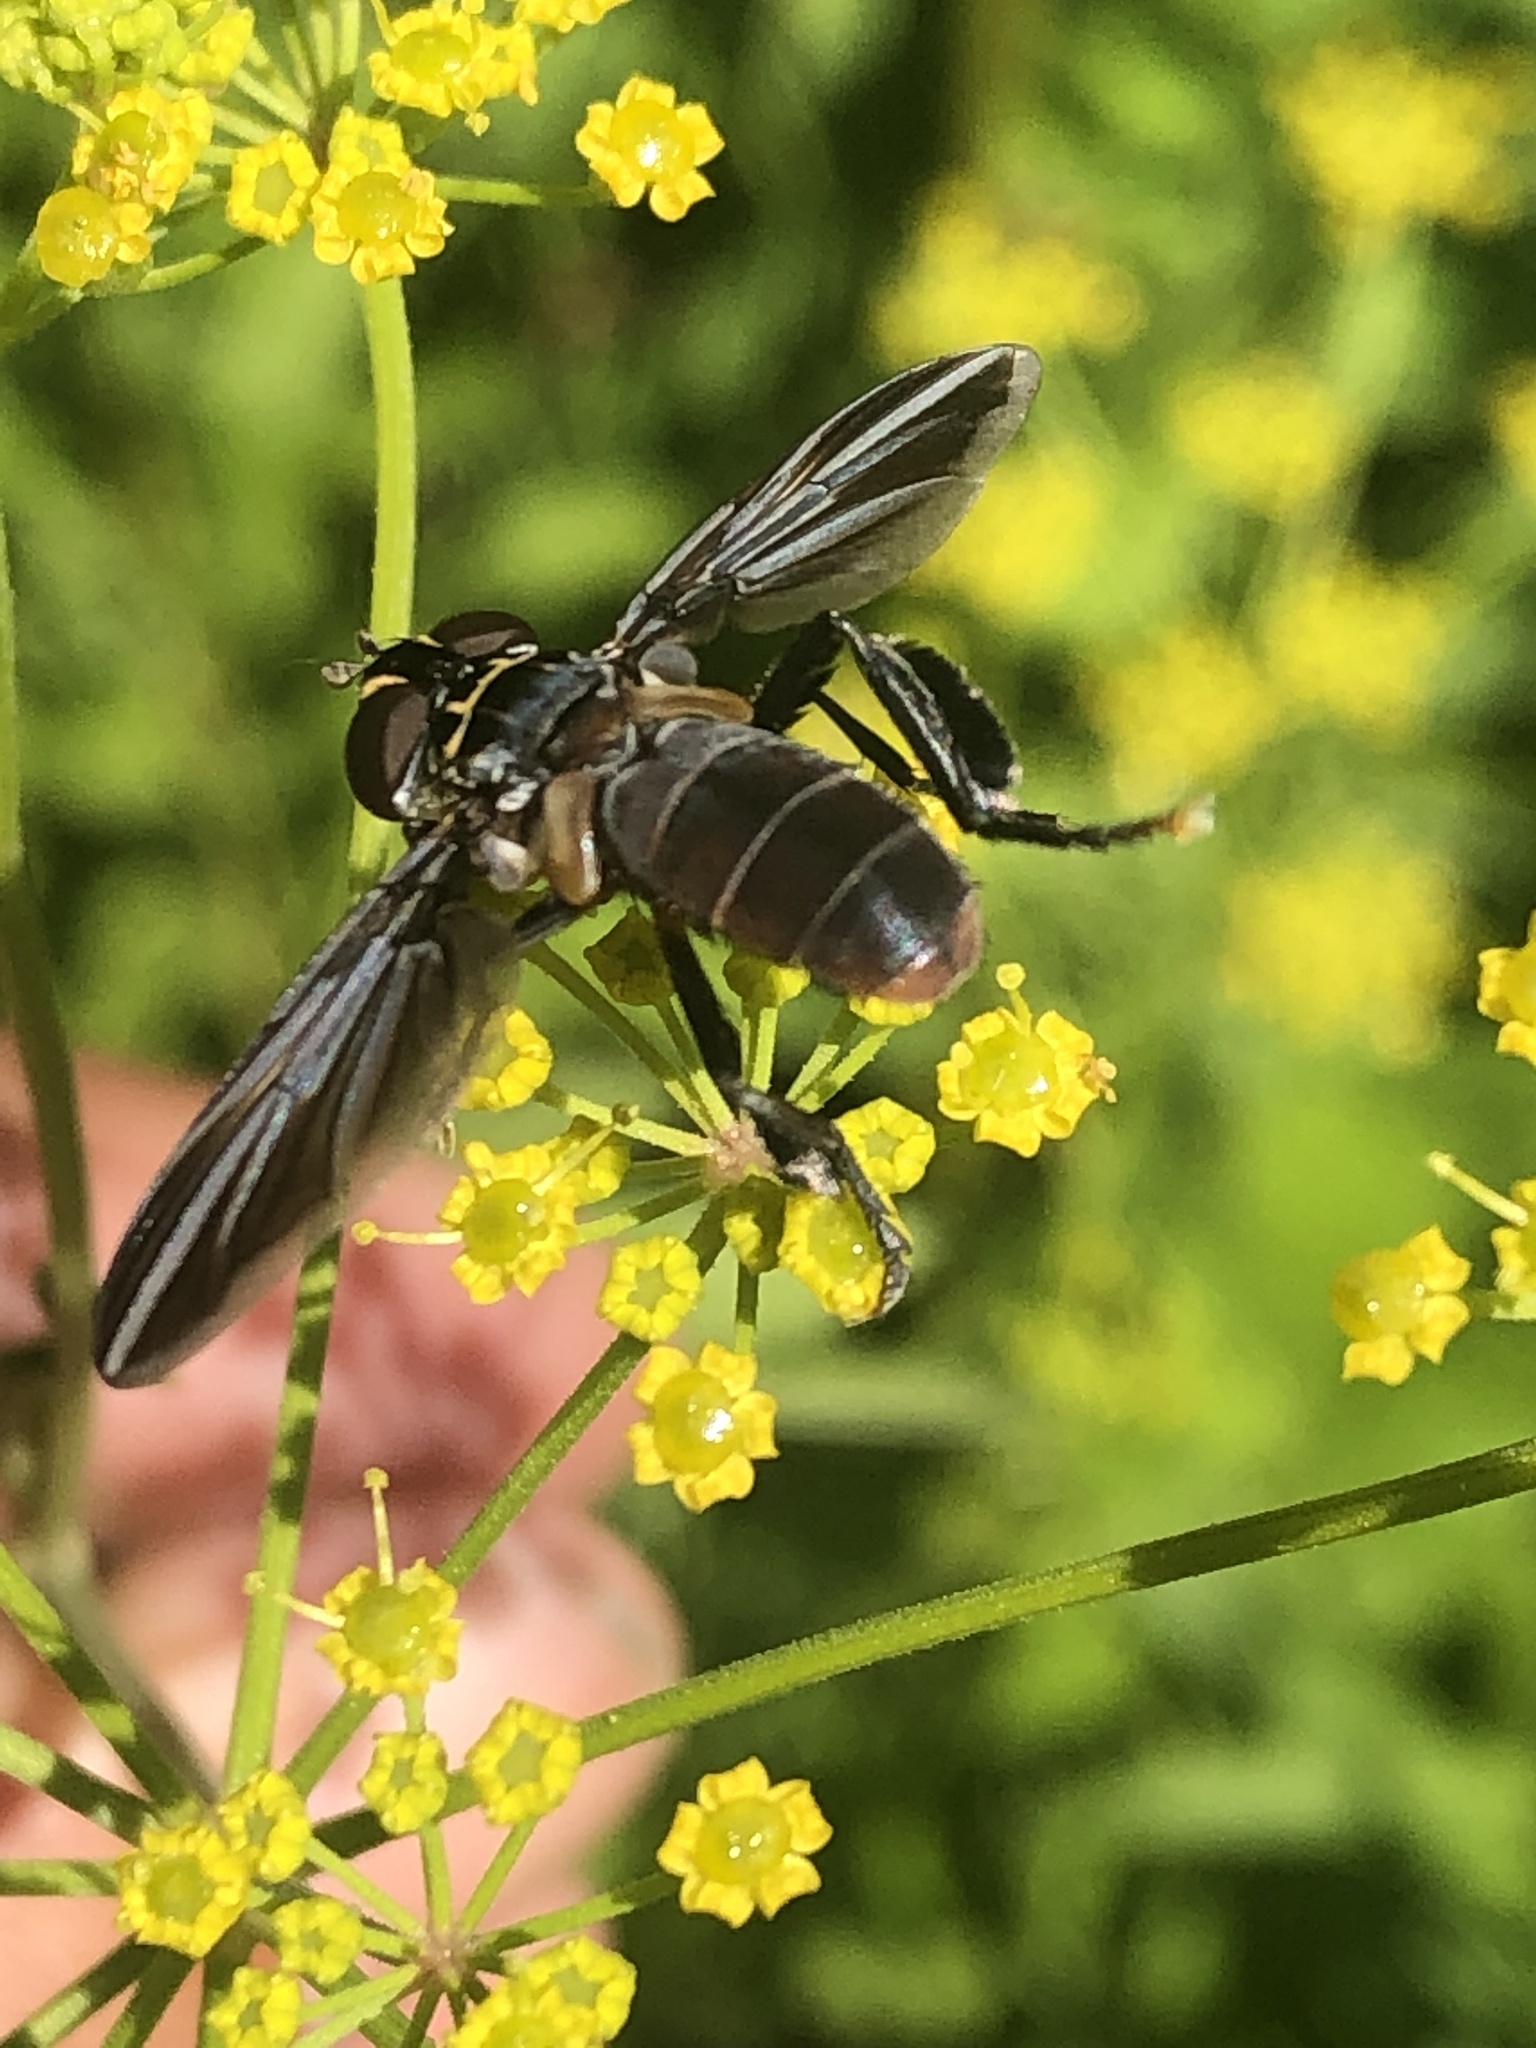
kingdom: Animalia
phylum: Arthropoda
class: Insecta
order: Diptera
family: Tachinidae
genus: Trichopoda
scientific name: Trichopoda lanipes
